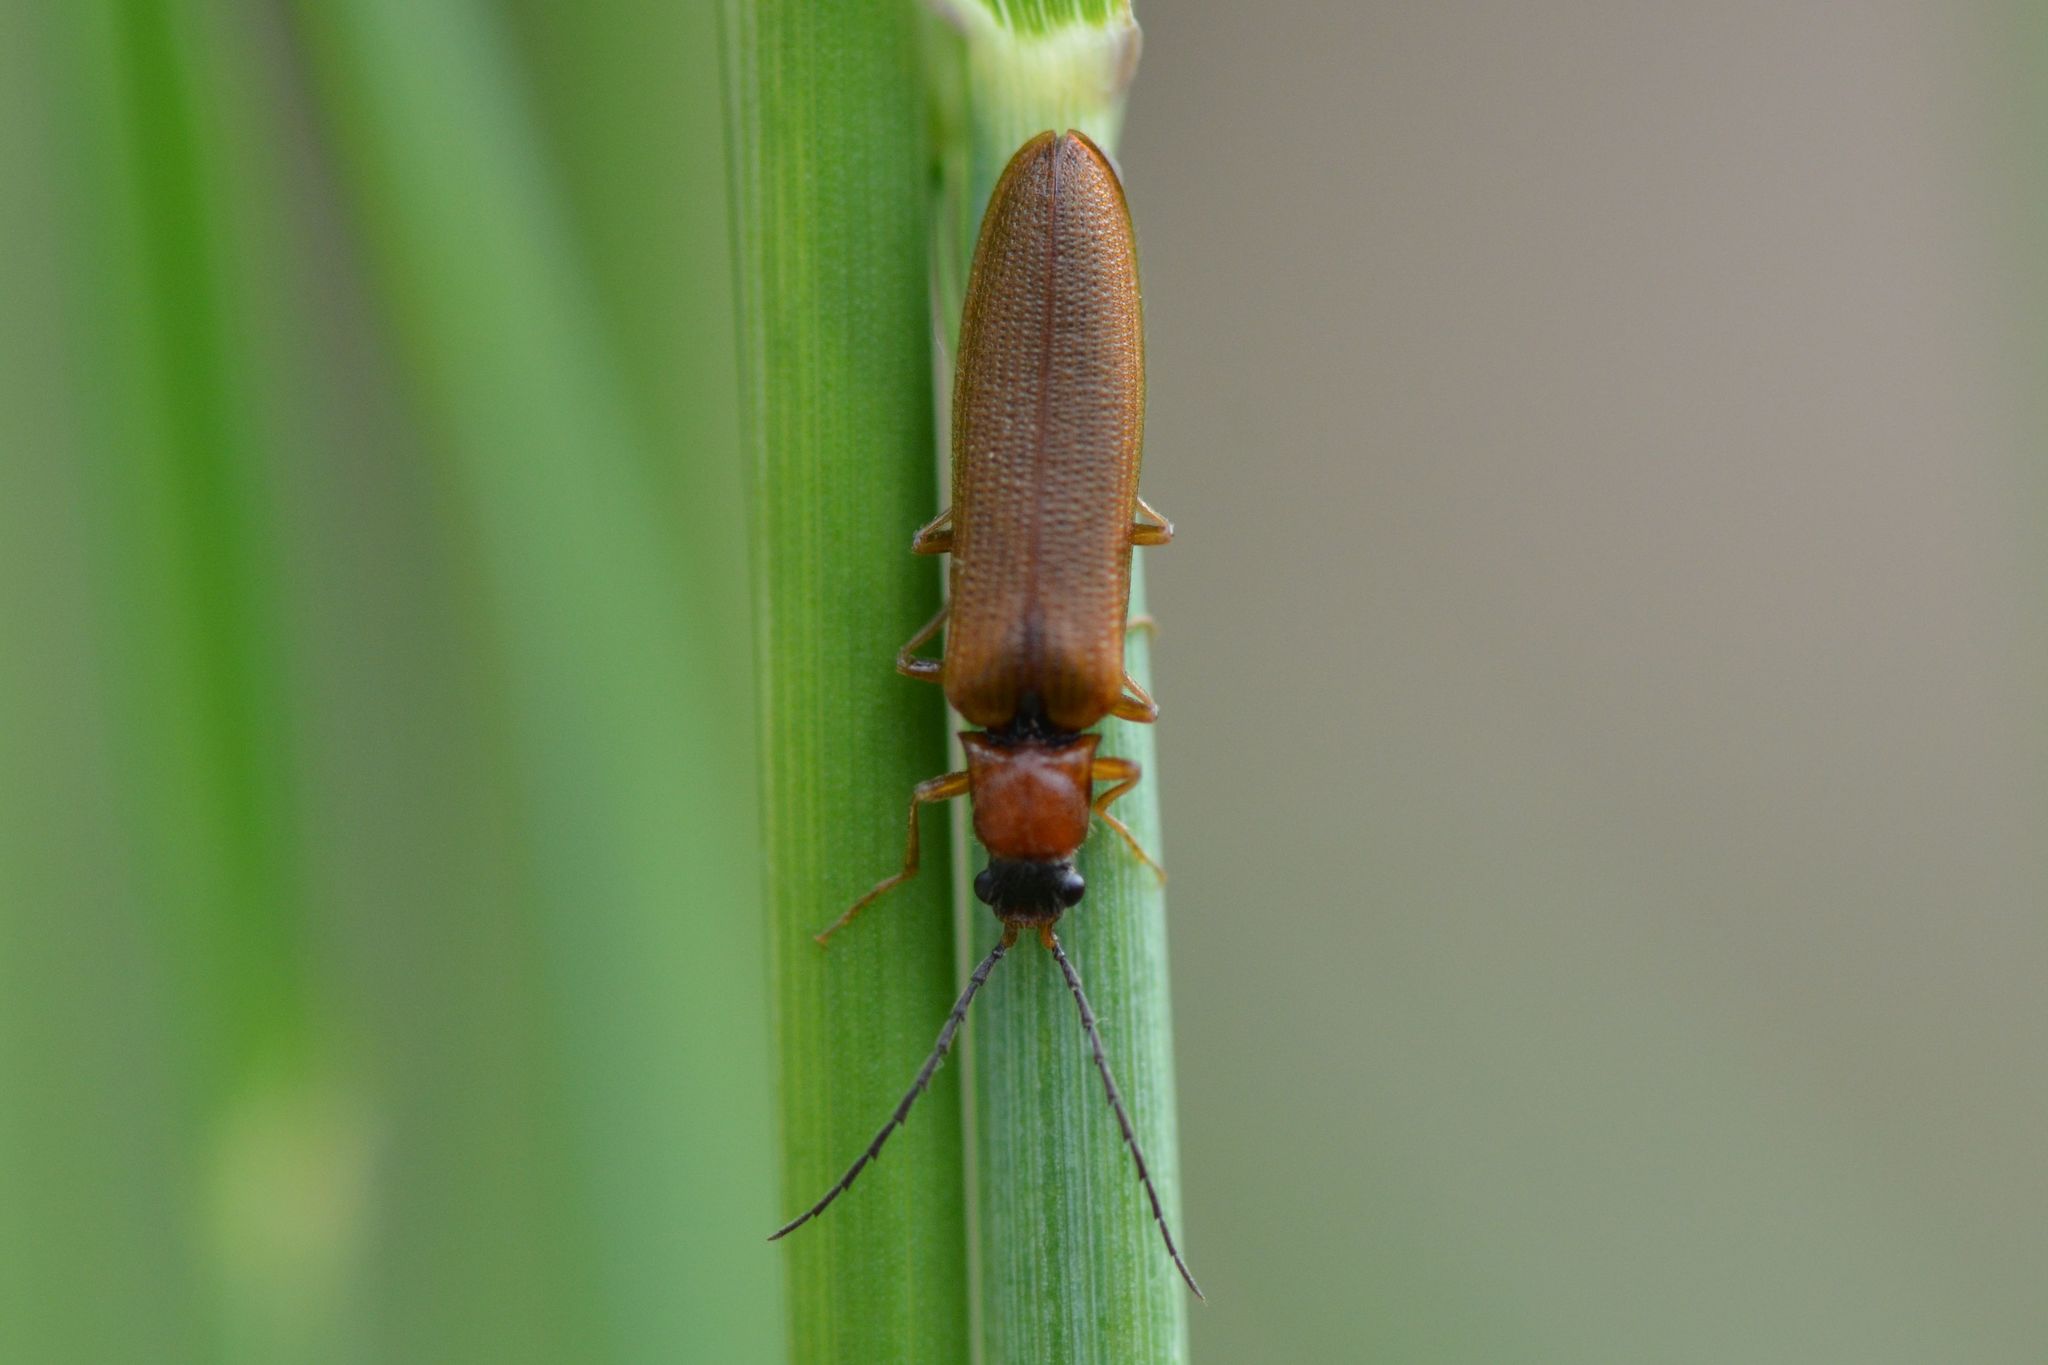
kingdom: Animalia
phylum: Arthropoda
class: Insecta
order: Coleoptera
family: Elateridae
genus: Denticollis
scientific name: Denticollis linearis
